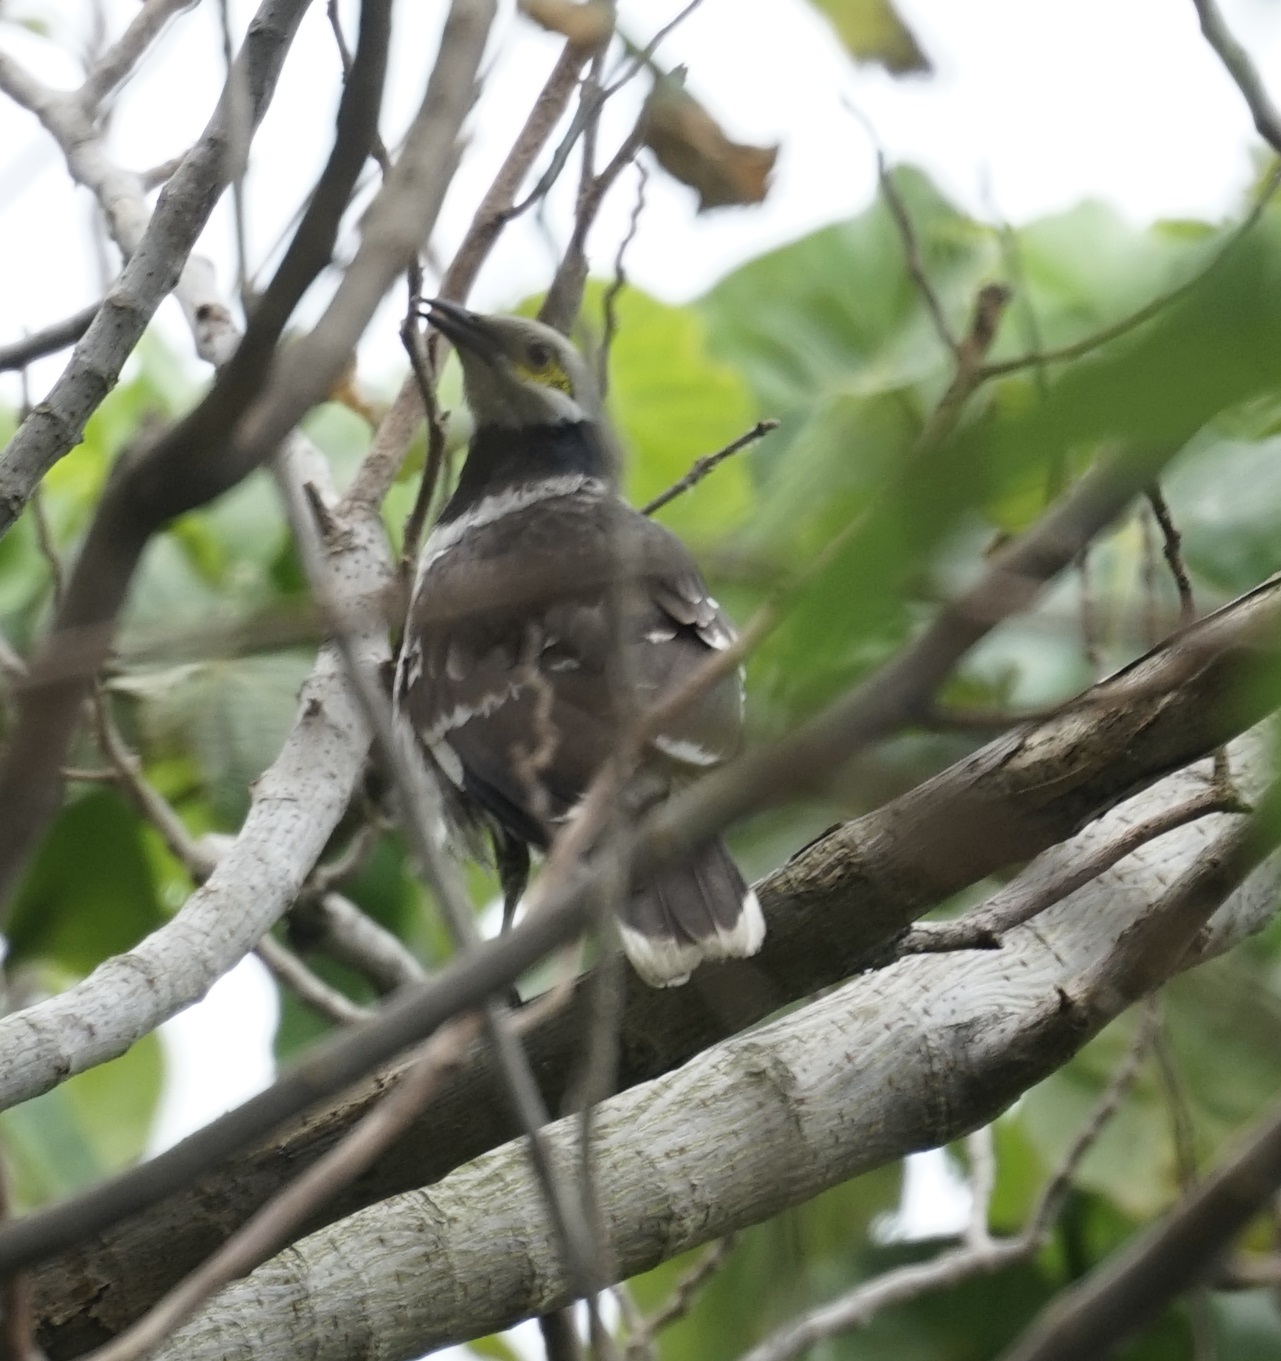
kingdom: Animalia
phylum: Chordata
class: Aves
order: Passeriformes
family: Sturnidae
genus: Gracupica
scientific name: Gracupica nigricollis
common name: Black-collared starling
